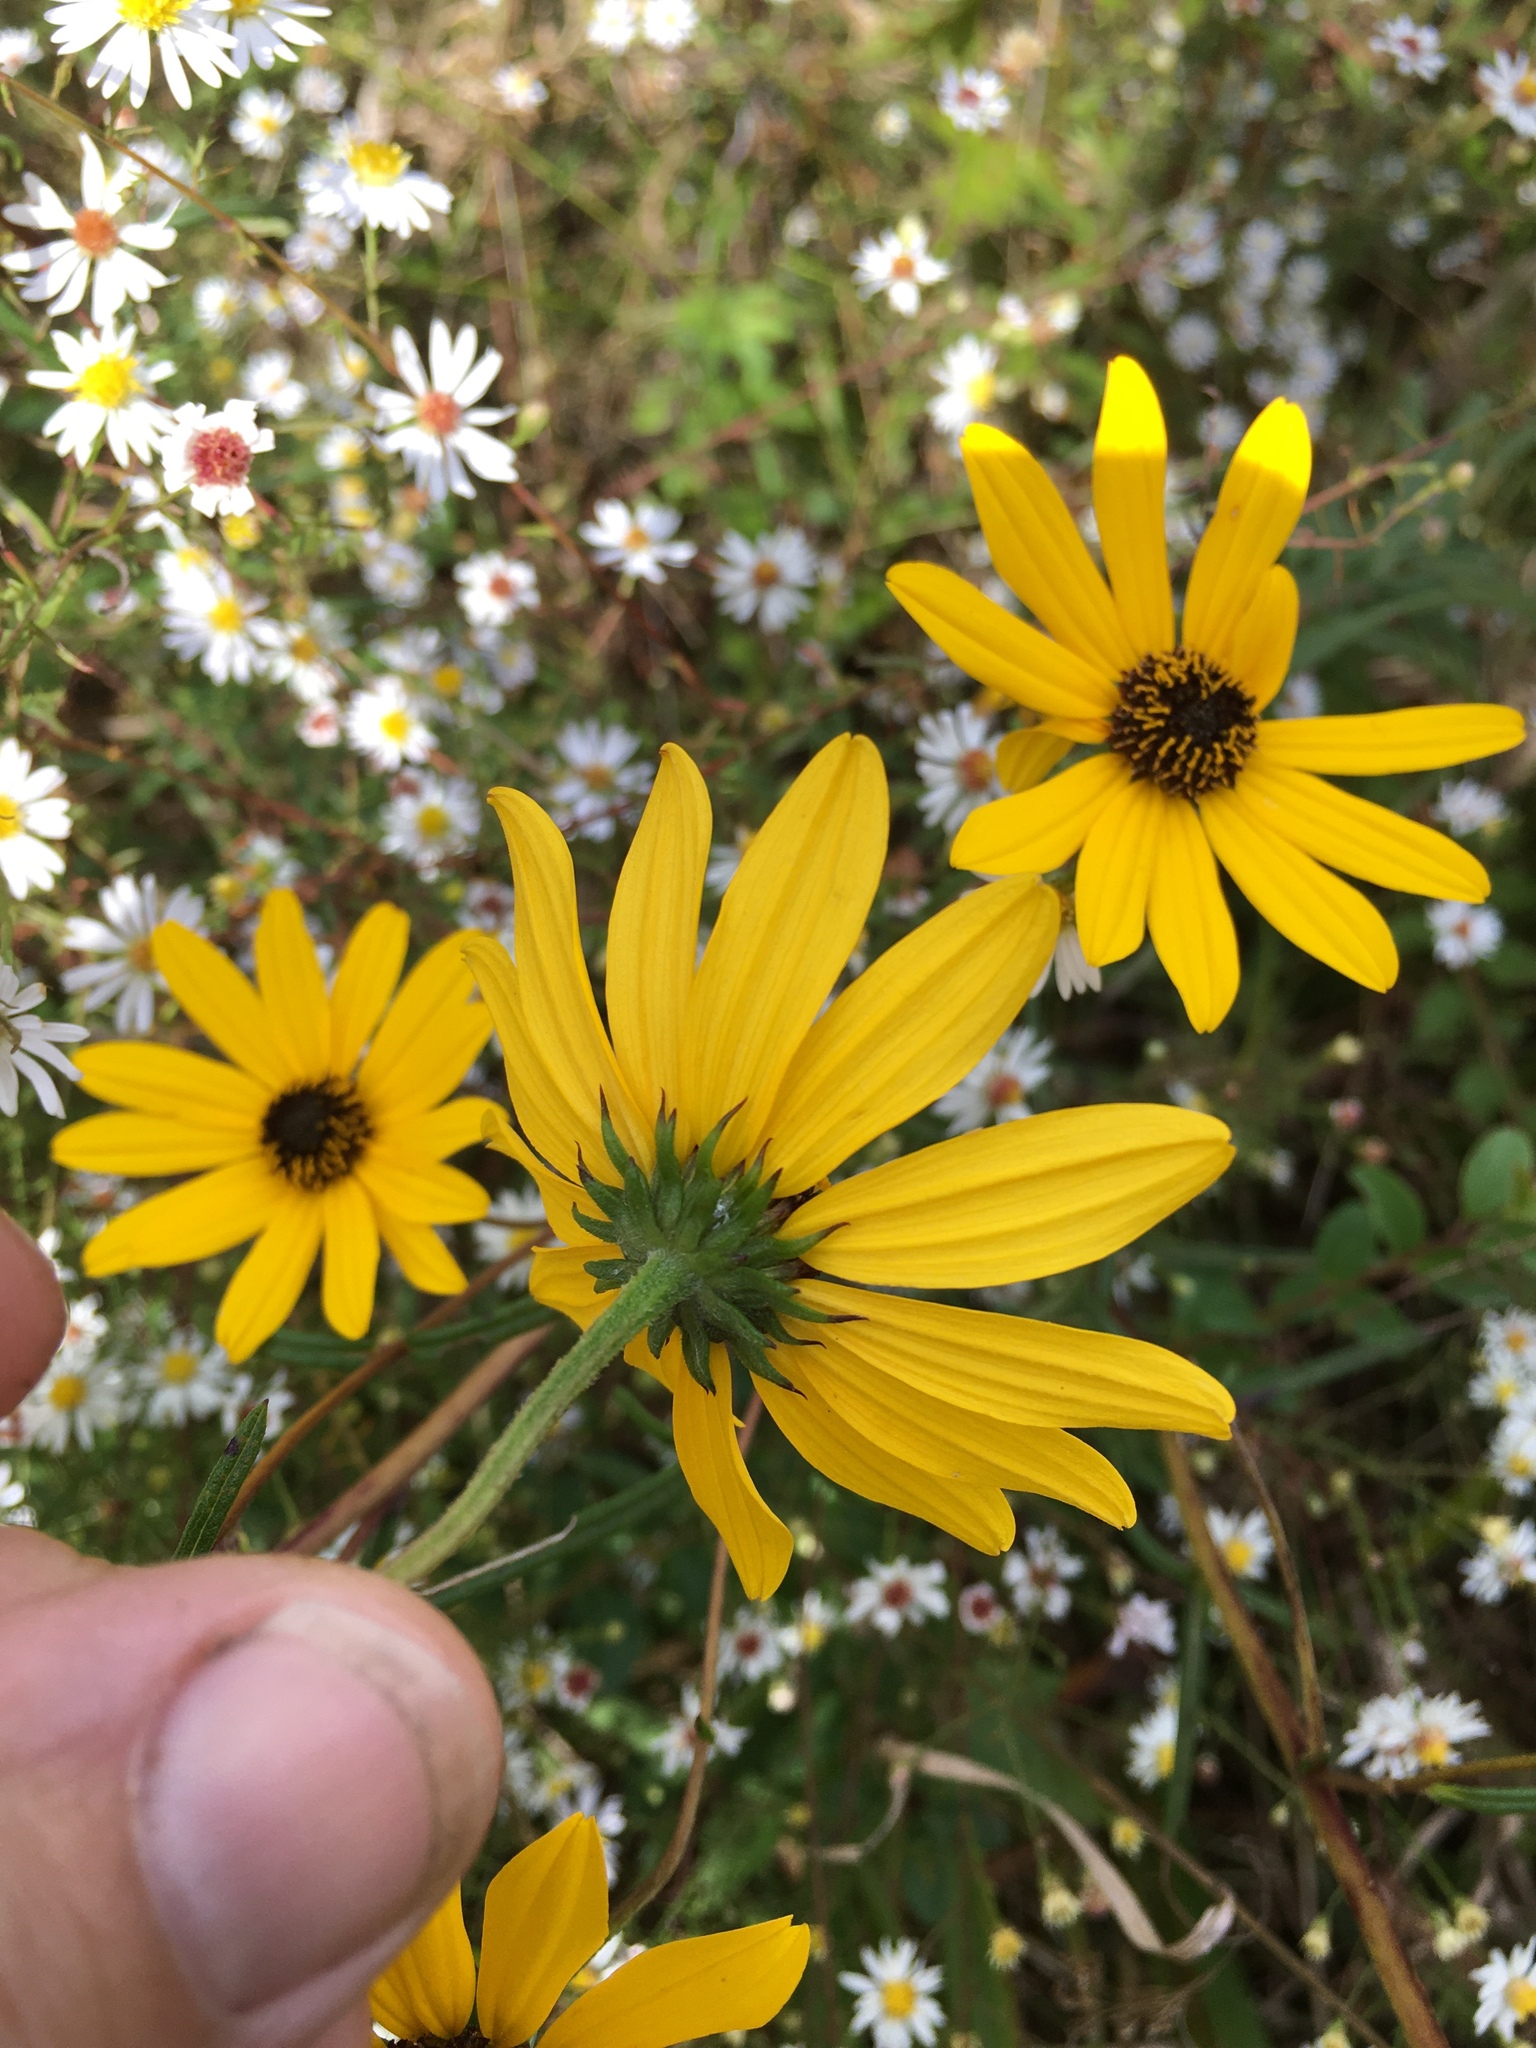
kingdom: Plantae
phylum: Tracheophyta
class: Magnoliopsida
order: Asterales
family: Asteraceae
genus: Helianthus
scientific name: Helianthus angustifolius
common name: Swamp sunflower
